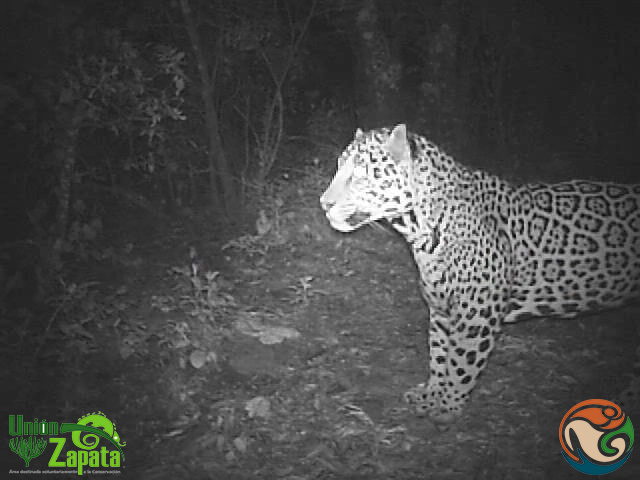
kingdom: Animalia
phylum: Chordata
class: Mammalia
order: Carnivora
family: Felidae
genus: Panthera
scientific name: Panthera onca
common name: Jaguar
